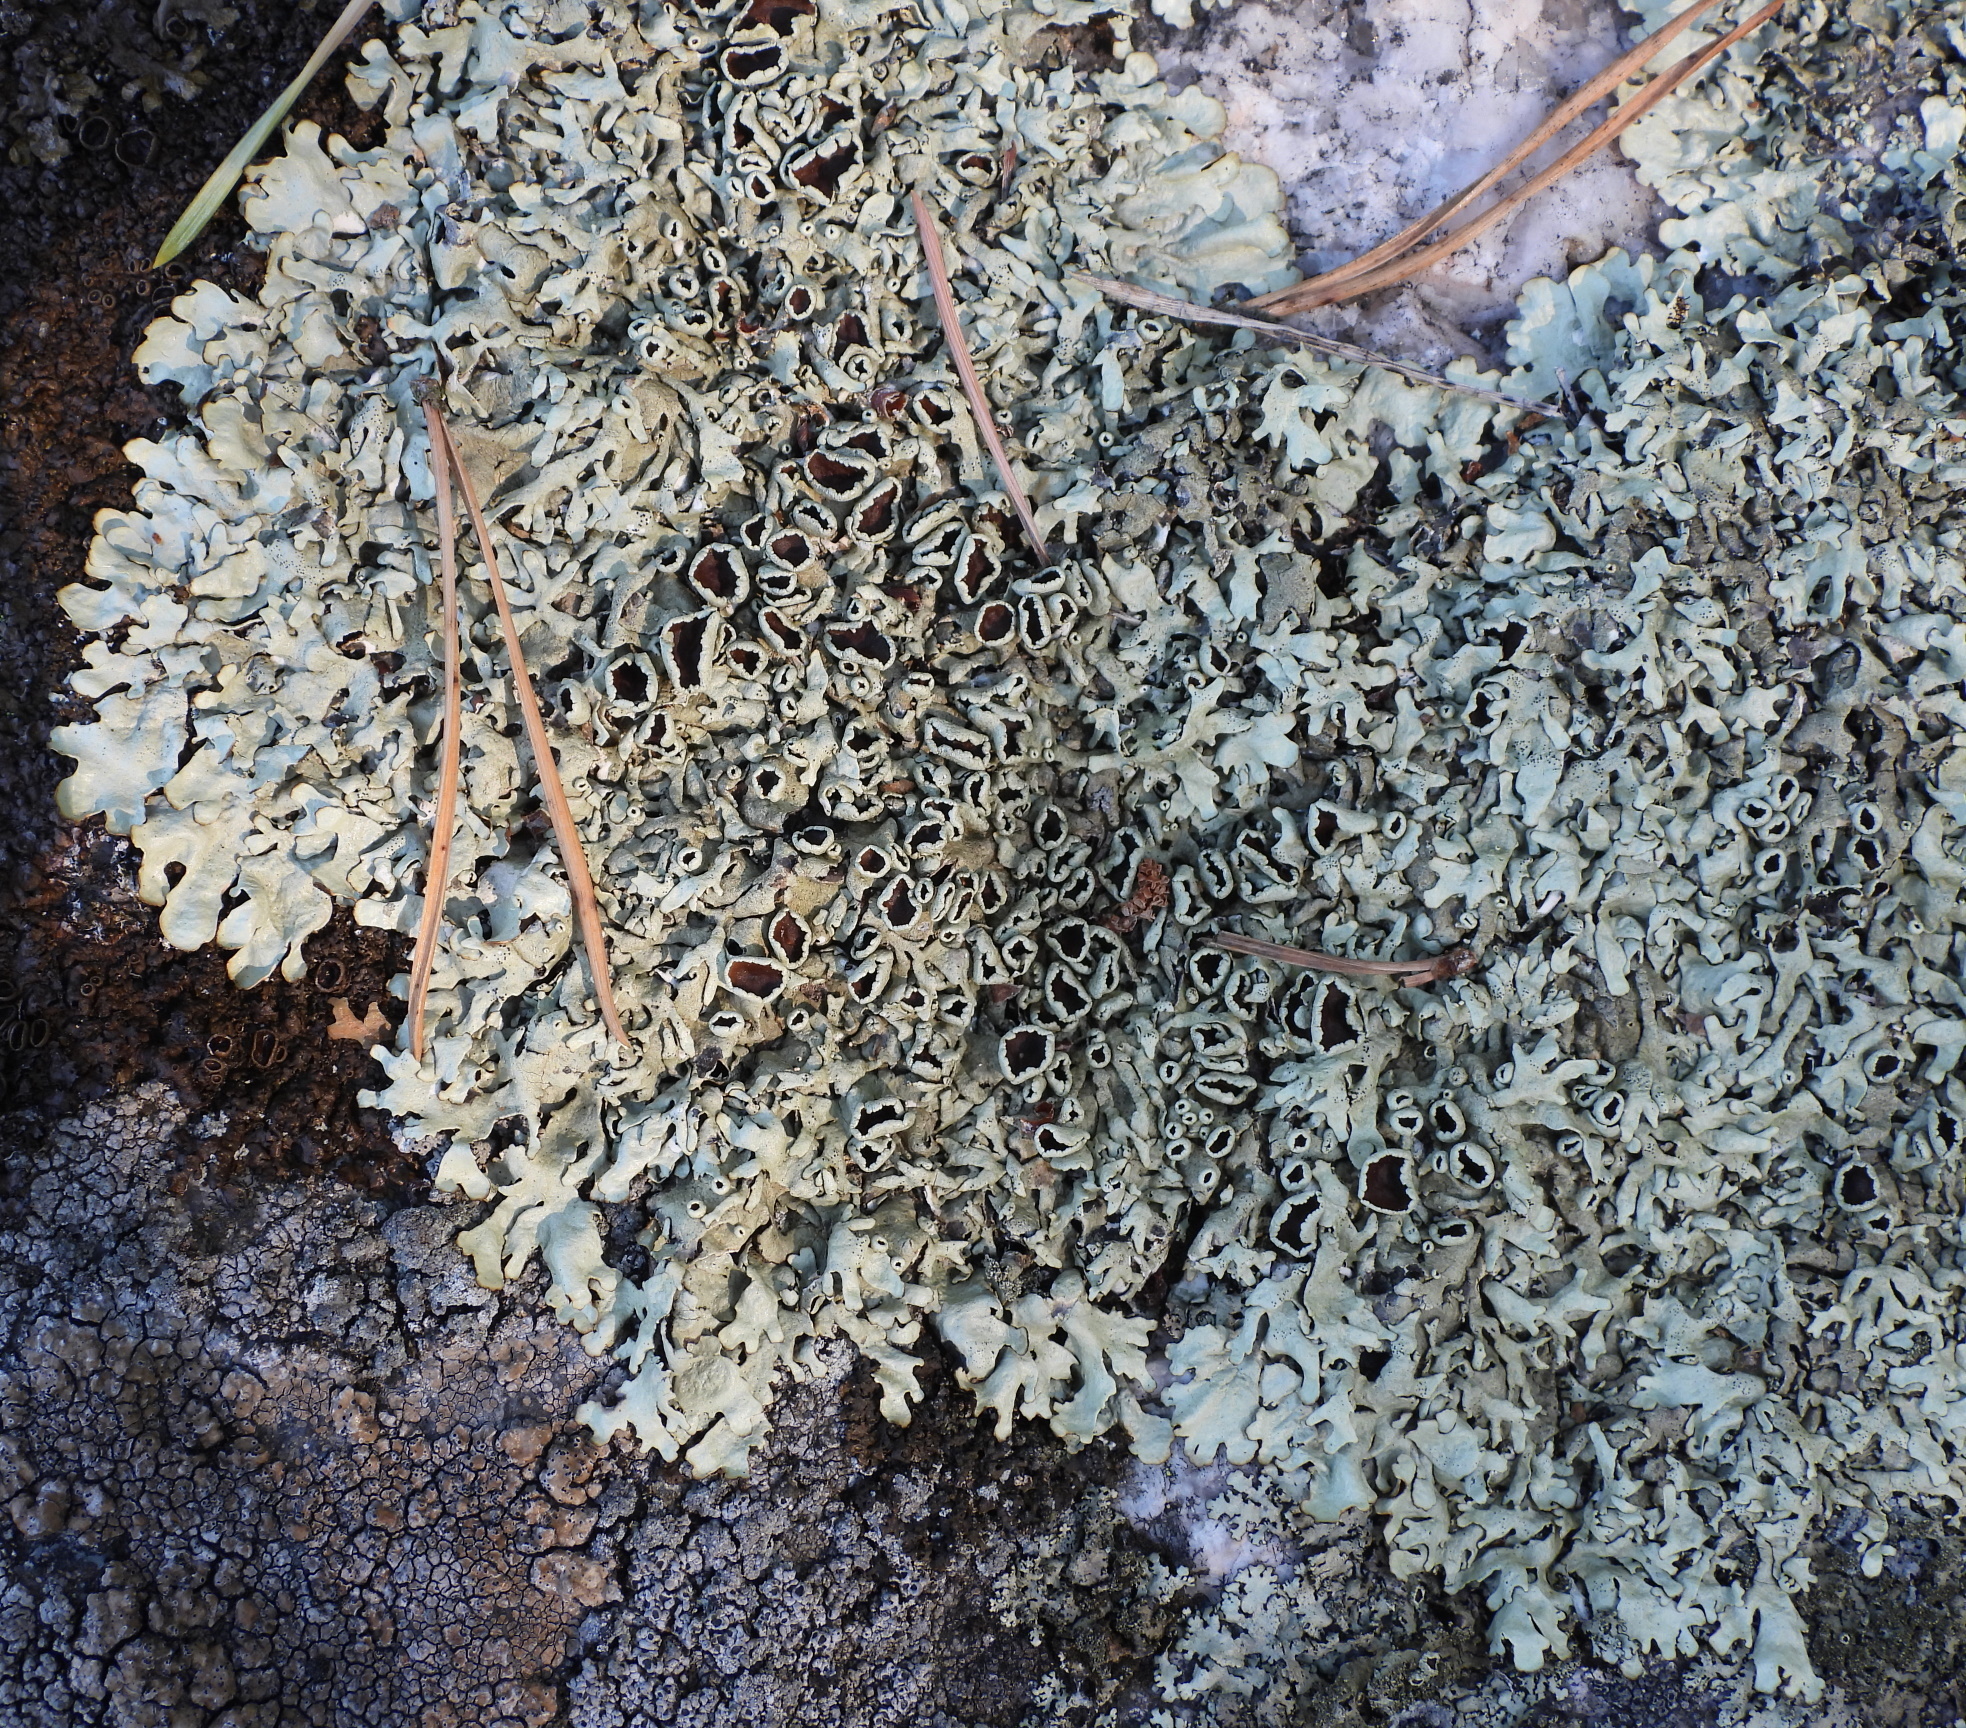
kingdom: Fungi
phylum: Ascomycota
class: Lecanoromycetes
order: Lecanorales
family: Parmeliaceae
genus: Xanthoparmelia
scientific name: Xanthoparmelia stenophylla
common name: Shingled rock shield
